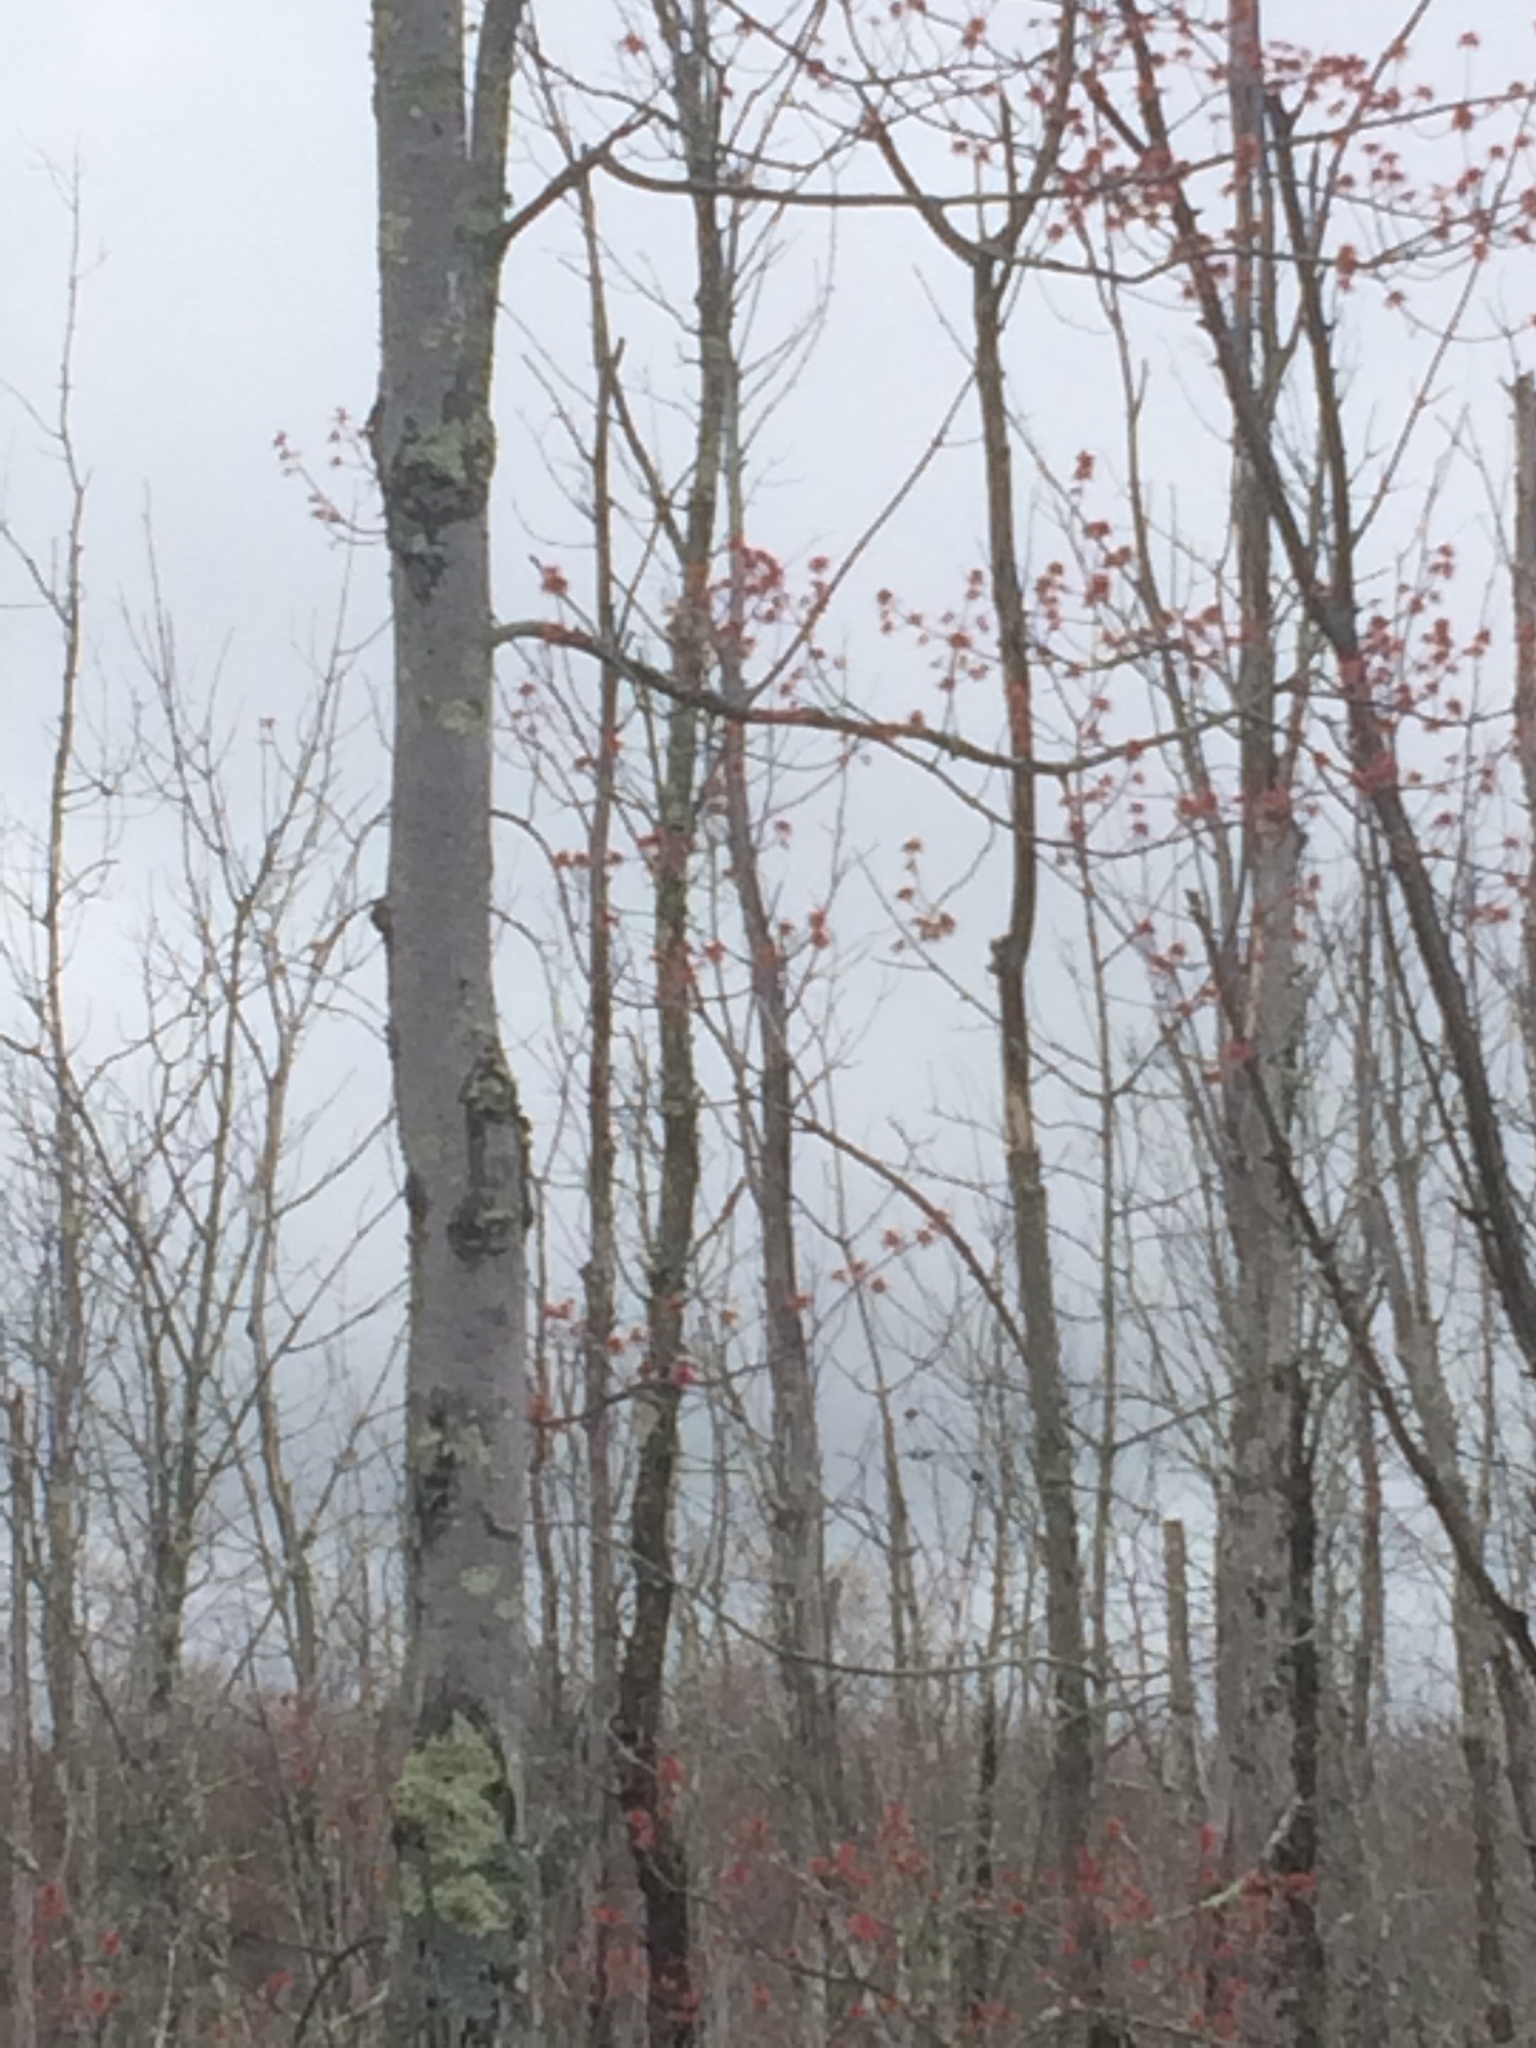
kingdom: Plantae
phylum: Tracheophyta
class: Magnoliopsida
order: Sapindales
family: Sapindaceae
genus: Acer
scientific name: Acer rubrum
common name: Red maple
